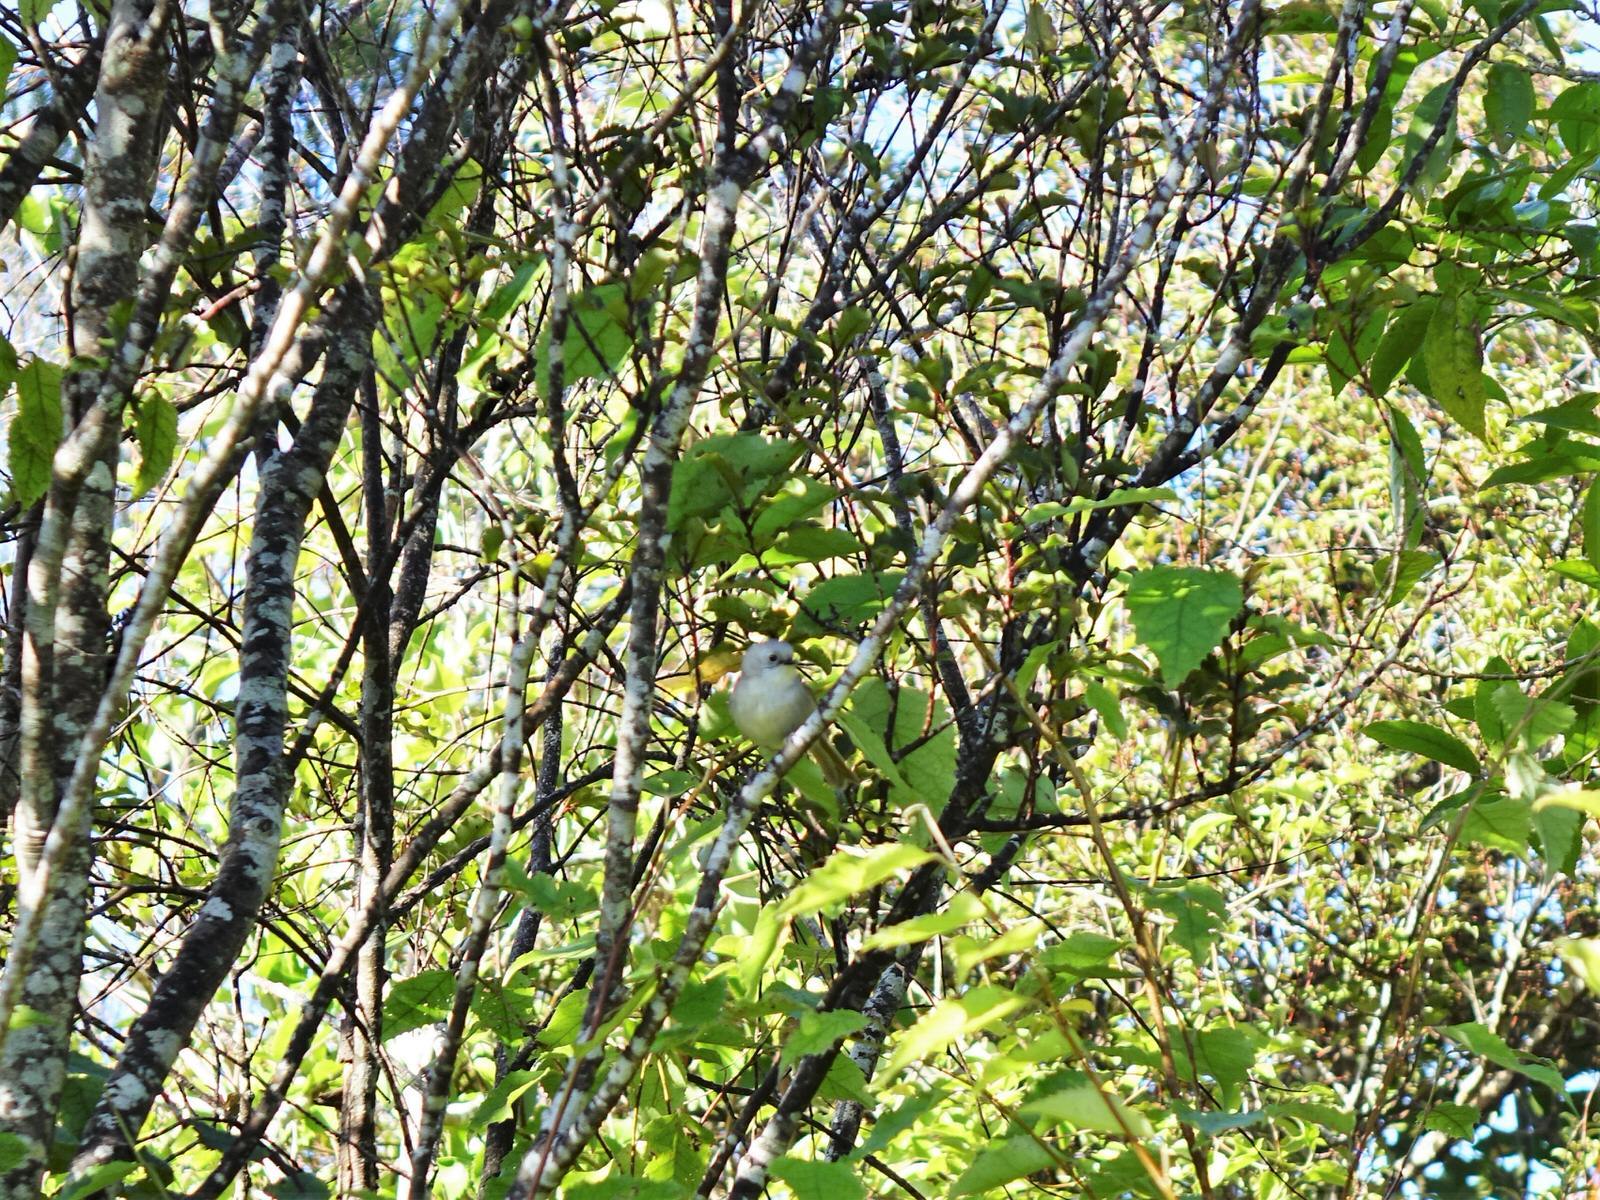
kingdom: Animalia
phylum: Chordata
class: Aves
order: Passeriformes
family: Acanthizidae
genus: Mohoua
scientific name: Mohoua albicilla
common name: Whitehead
